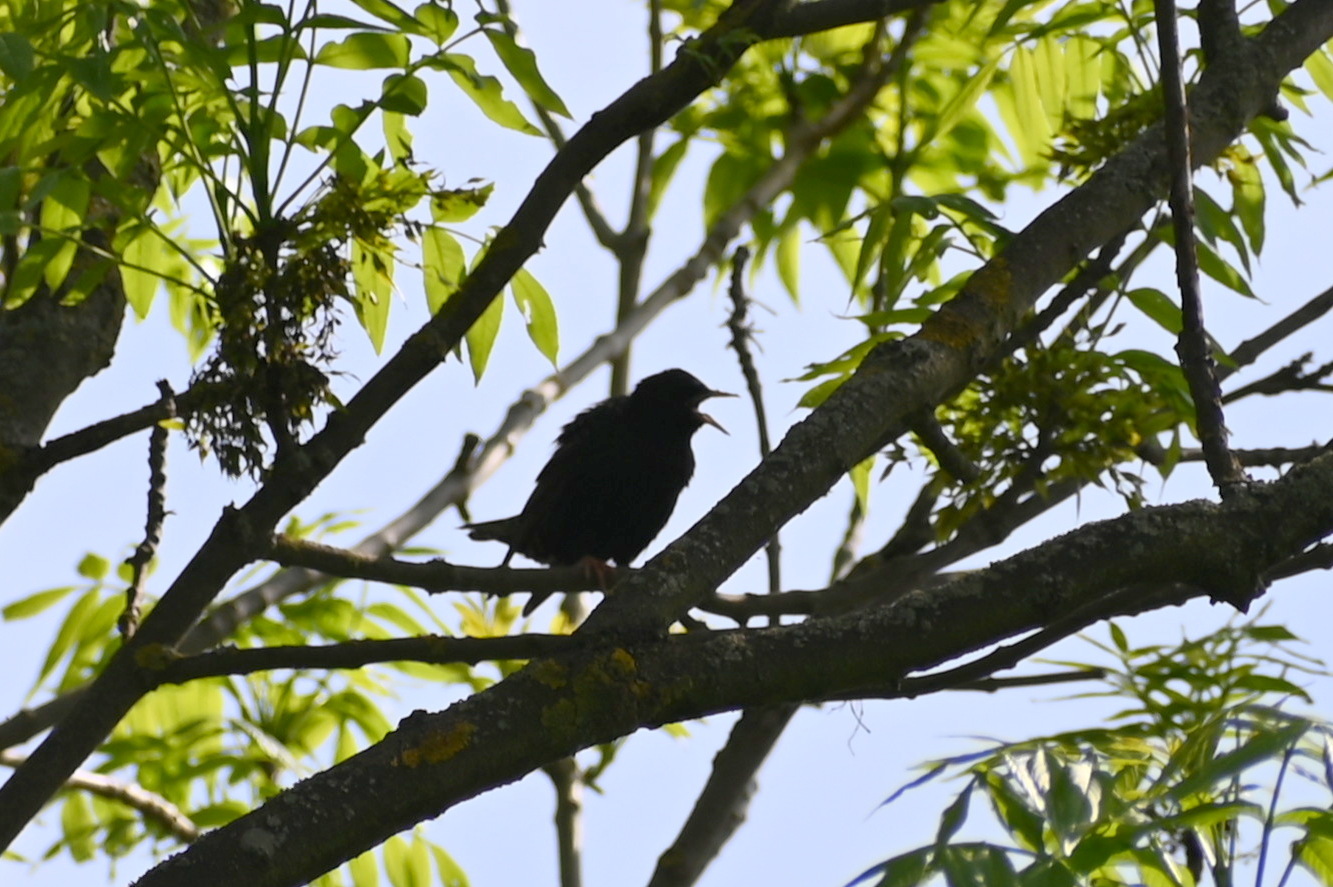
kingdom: Animalia
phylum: Chordata
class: Aves
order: Passeriformes
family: Sturnidae
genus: Sturnus
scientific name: Sturnus vulgaris
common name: Common starling
